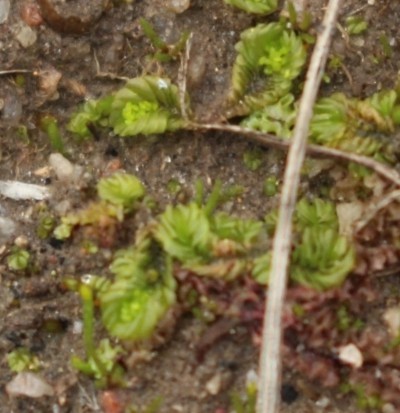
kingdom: Plantae
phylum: Marchantiophyta
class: Jungermanniopsida
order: Jungermanniales
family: Acrobolbaceae
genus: Lethocolea
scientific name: Lethocolea pansa
